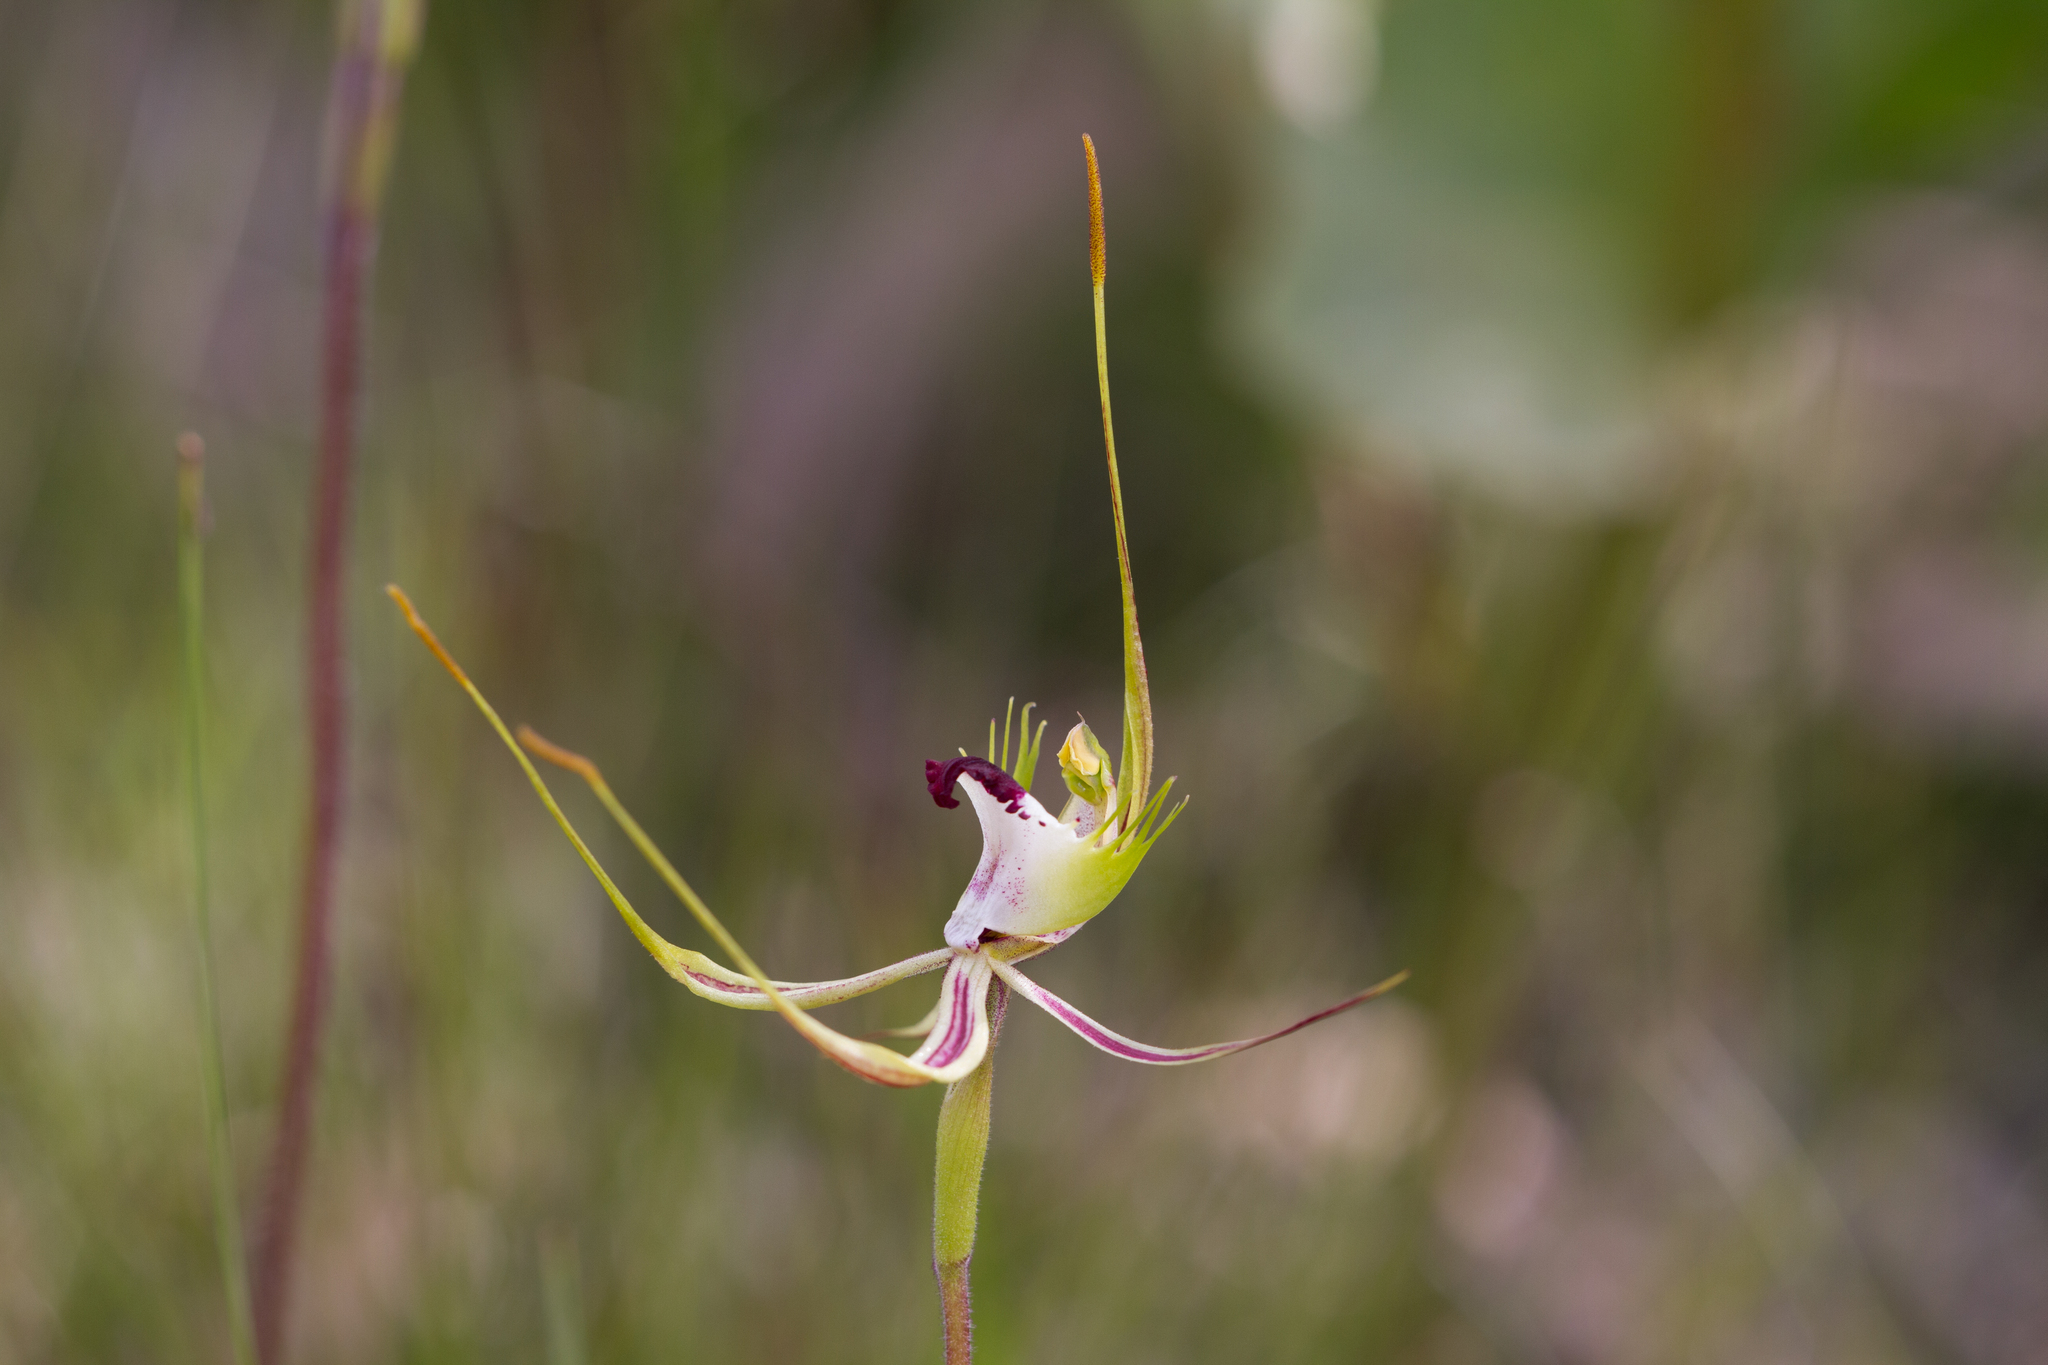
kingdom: Plantae
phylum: Tracheophyta
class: Liliopsida
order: Asparagales
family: Orchidaceae
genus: Caladenia
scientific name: Caladenia tentaculata
